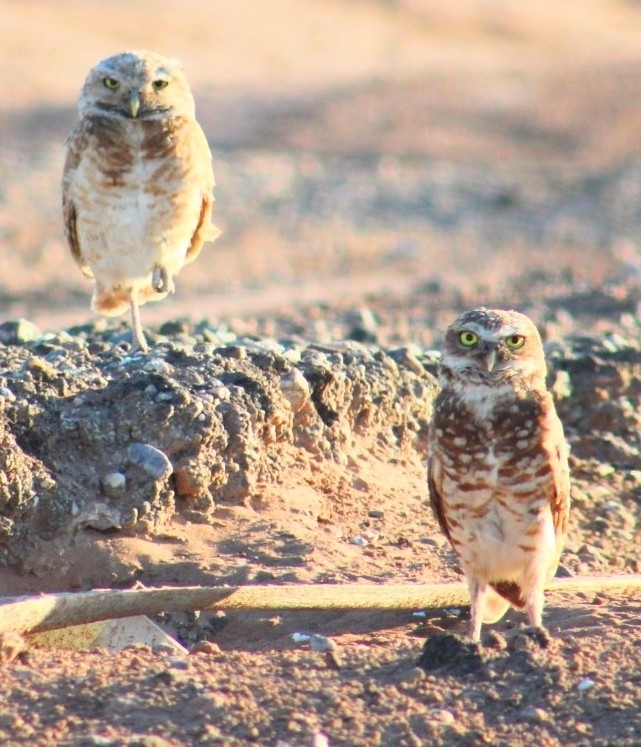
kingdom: Animalia
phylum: Chordata
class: Aves
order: Strigiformes
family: Strigidae
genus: Athene
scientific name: Athene cunicularia
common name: Burrowing owl
